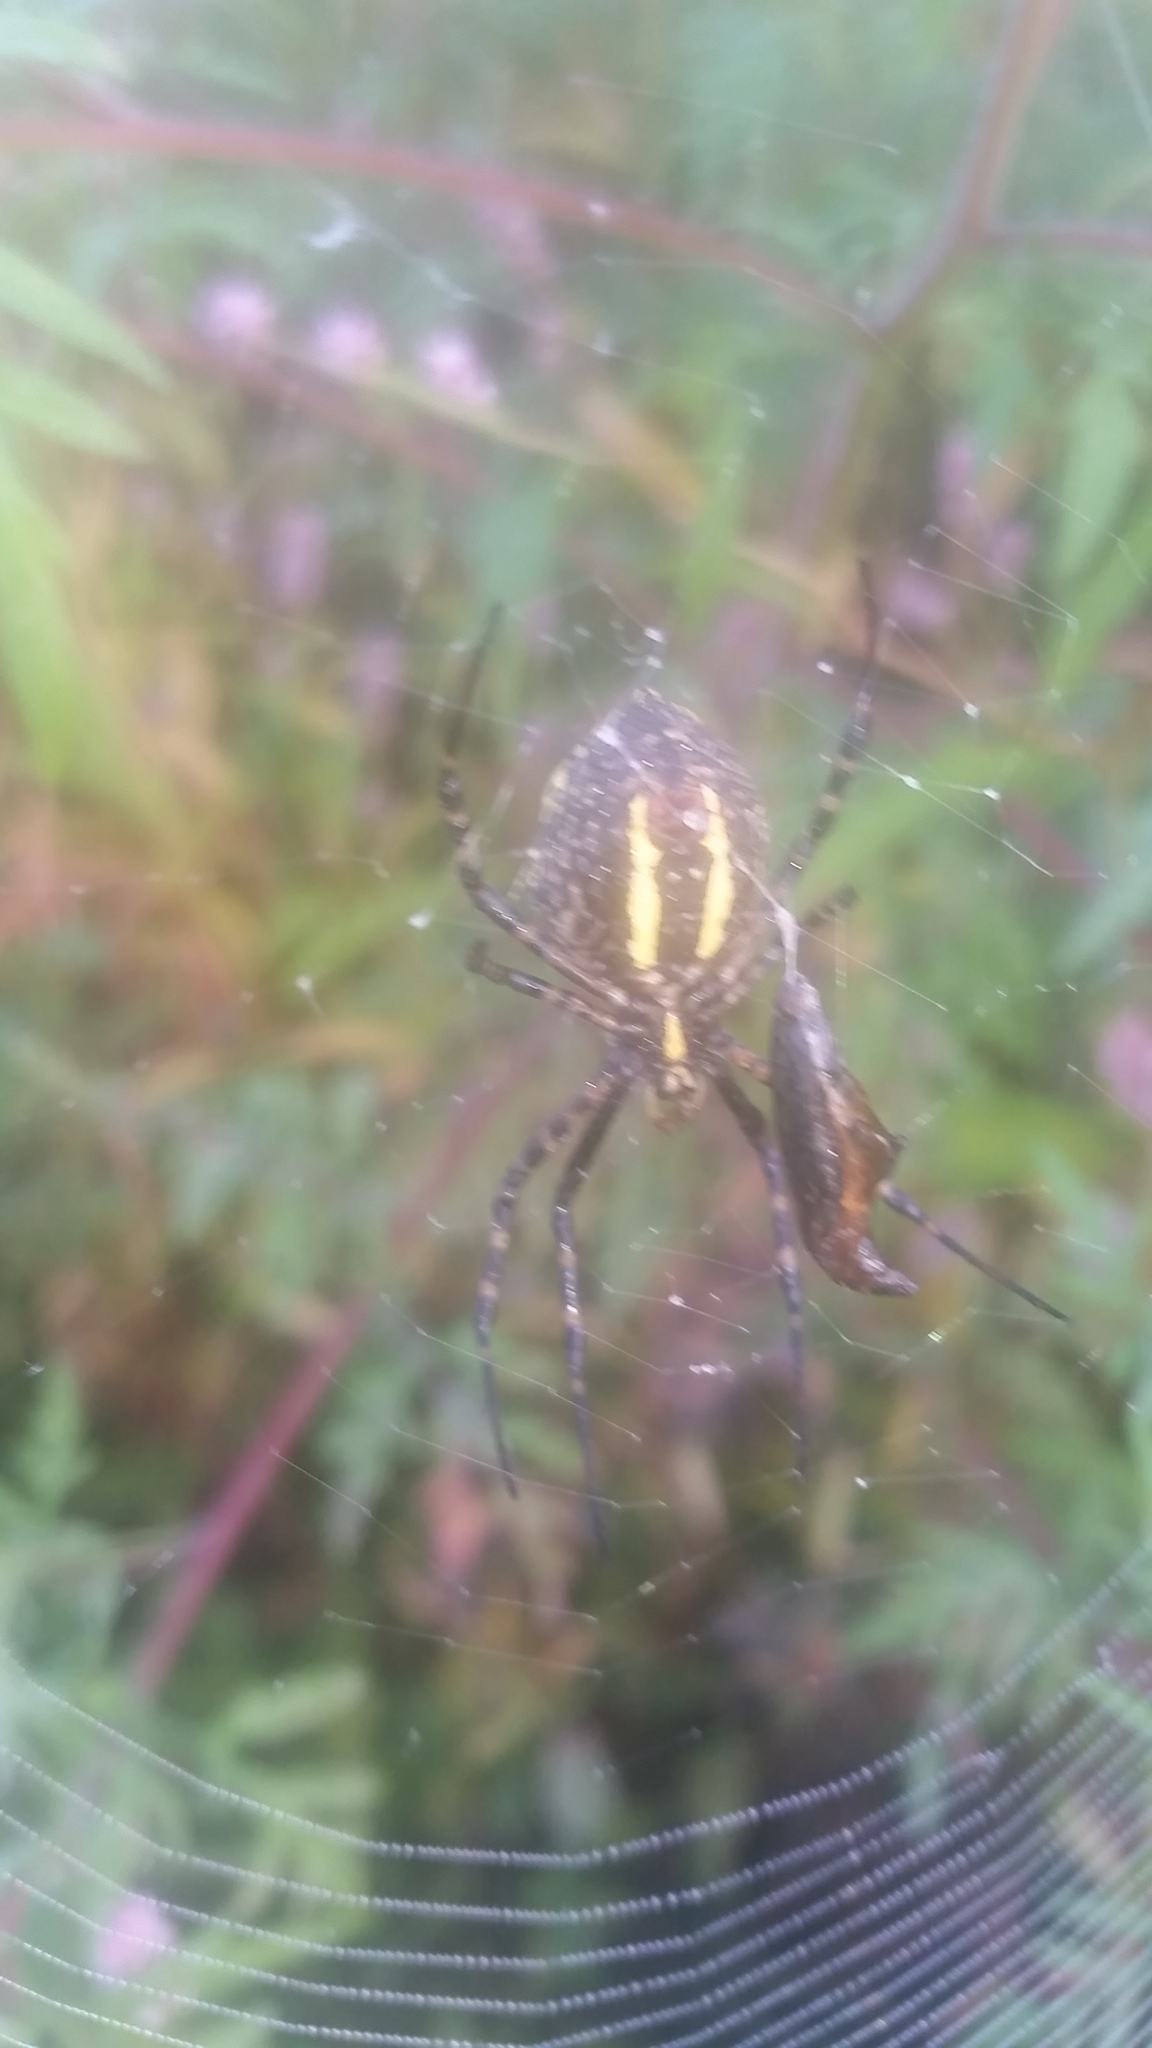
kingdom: Animalia
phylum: Arthropoda
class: Arachnida
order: Araneae
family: Araneidae
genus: Argiope
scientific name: Argiope trifasciata
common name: Banded garden spider
